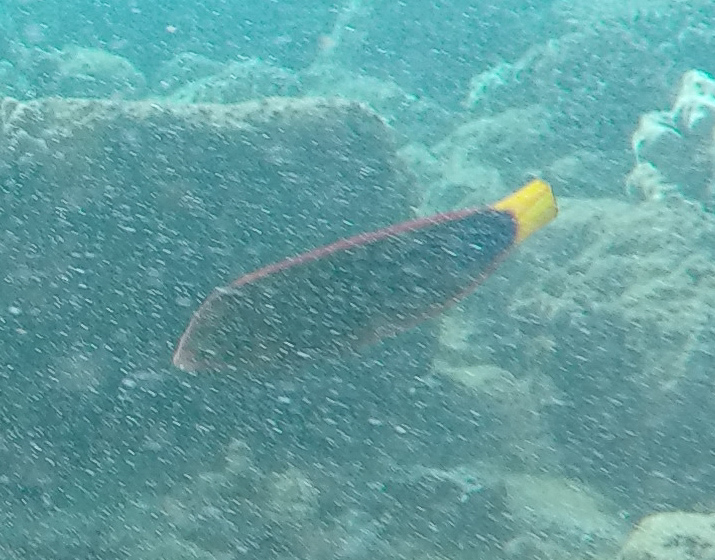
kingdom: Animalia
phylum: Chordata
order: Perciformes
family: Labridae
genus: Coris
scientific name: Coris gaimard
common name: Yellowtail coris
